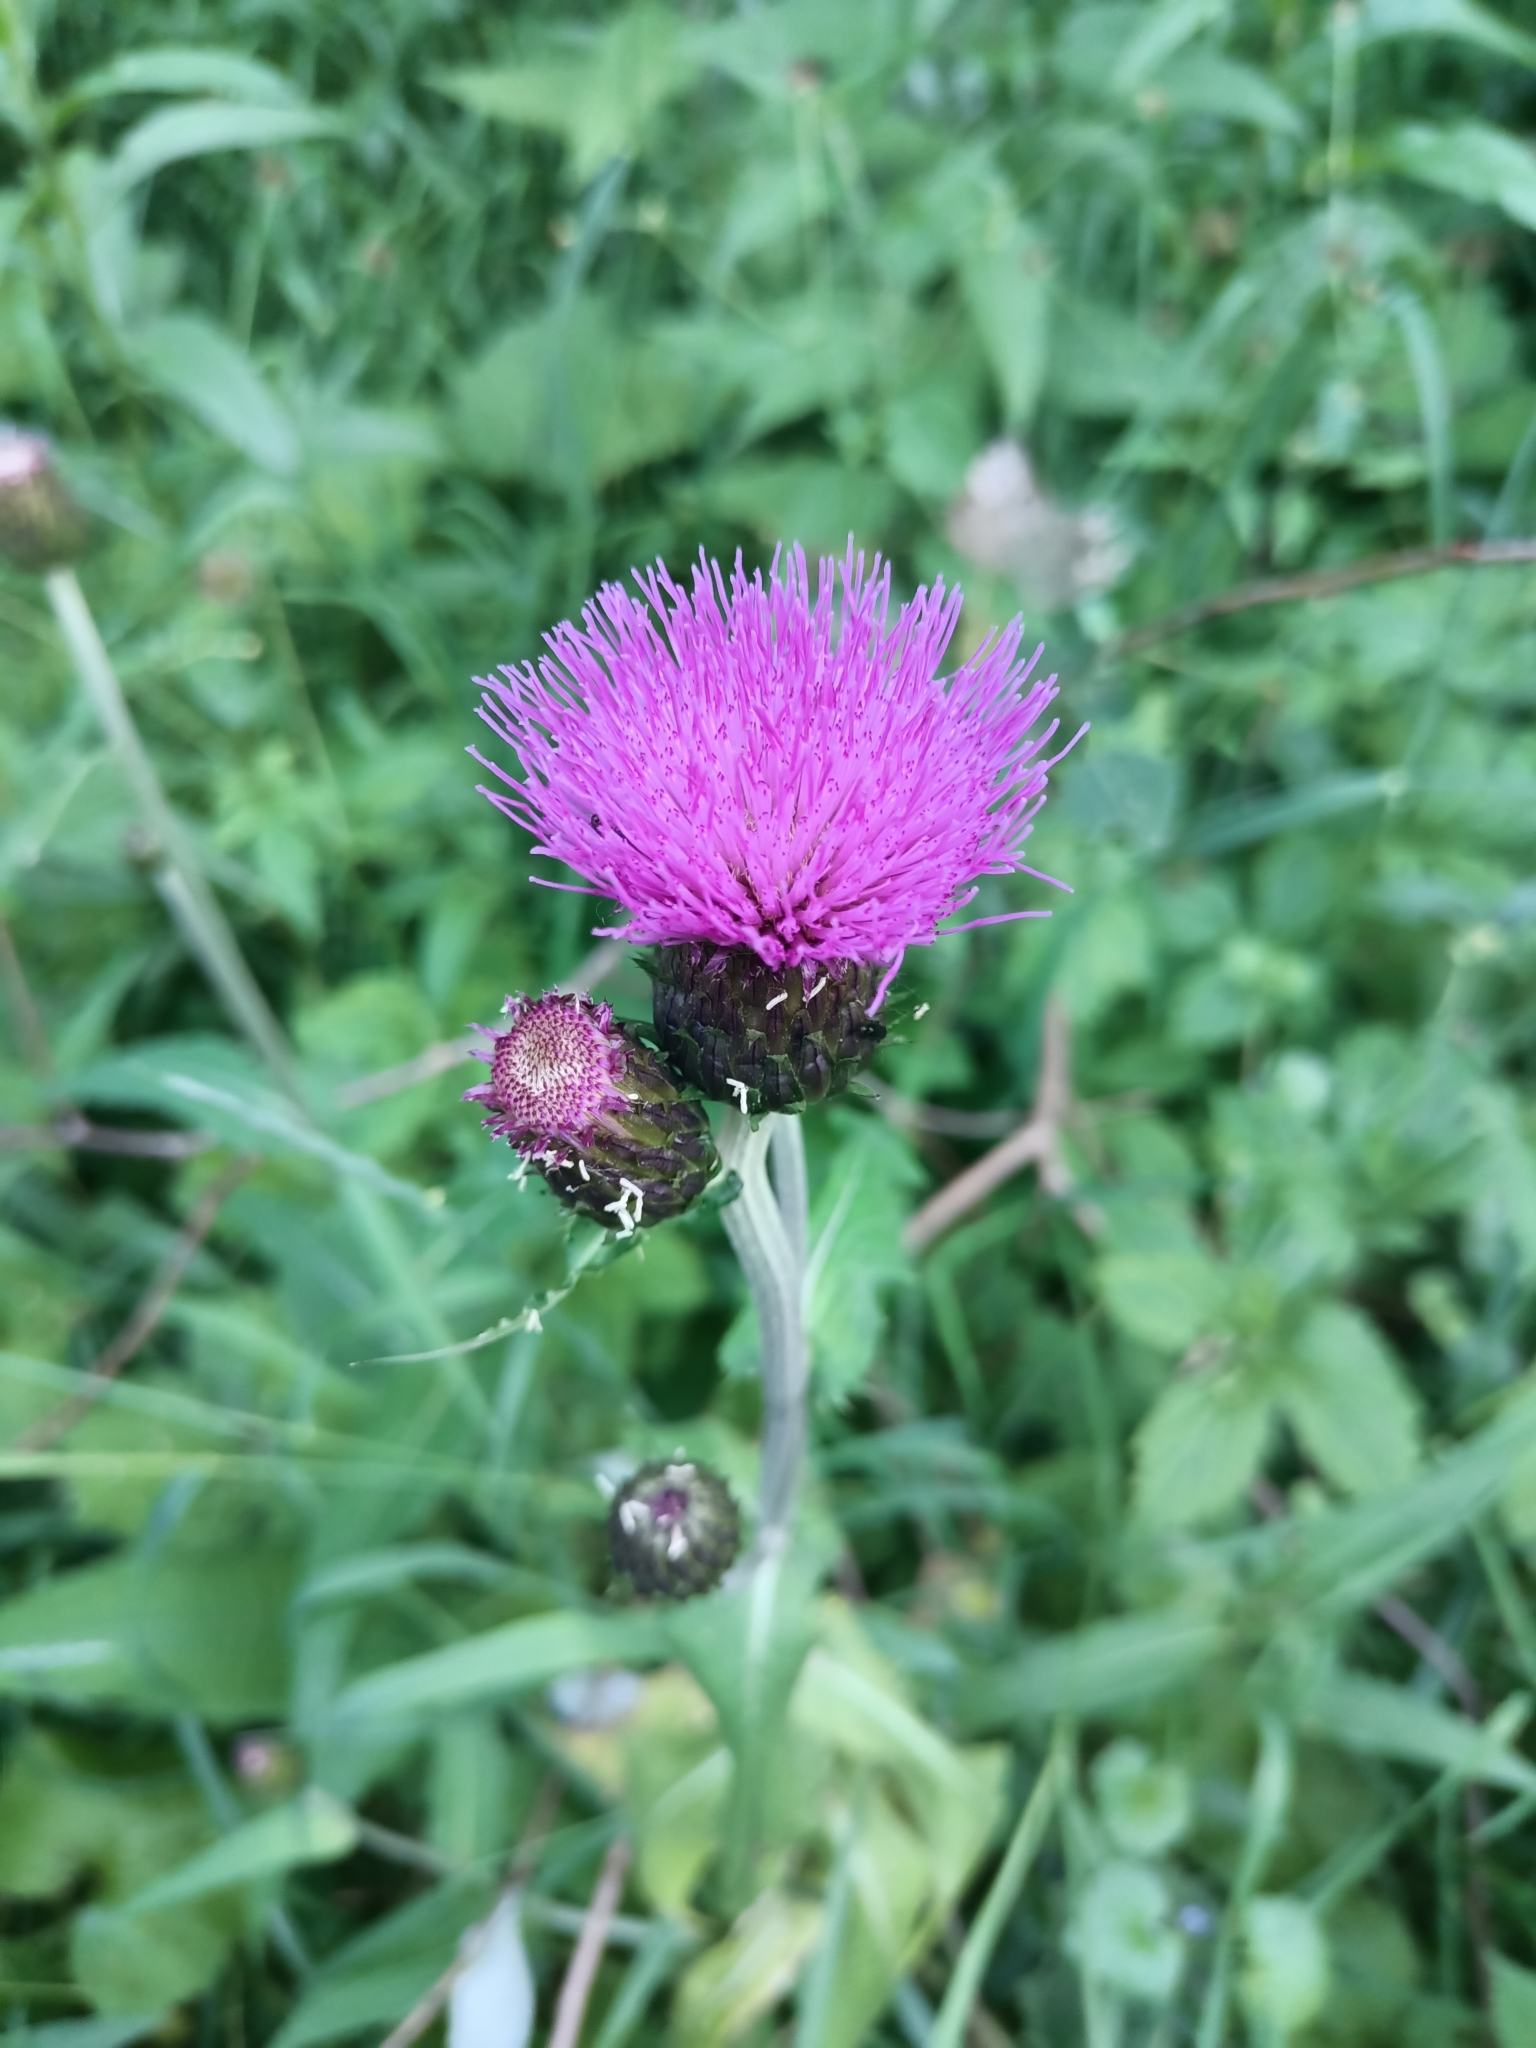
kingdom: Plantae
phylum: Tracheophyta
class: Magnoliopsida
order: Asterales
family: Asteraceae
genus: Cirsium
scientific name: Cirsium heterophyllum
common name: Melancholy thistle
